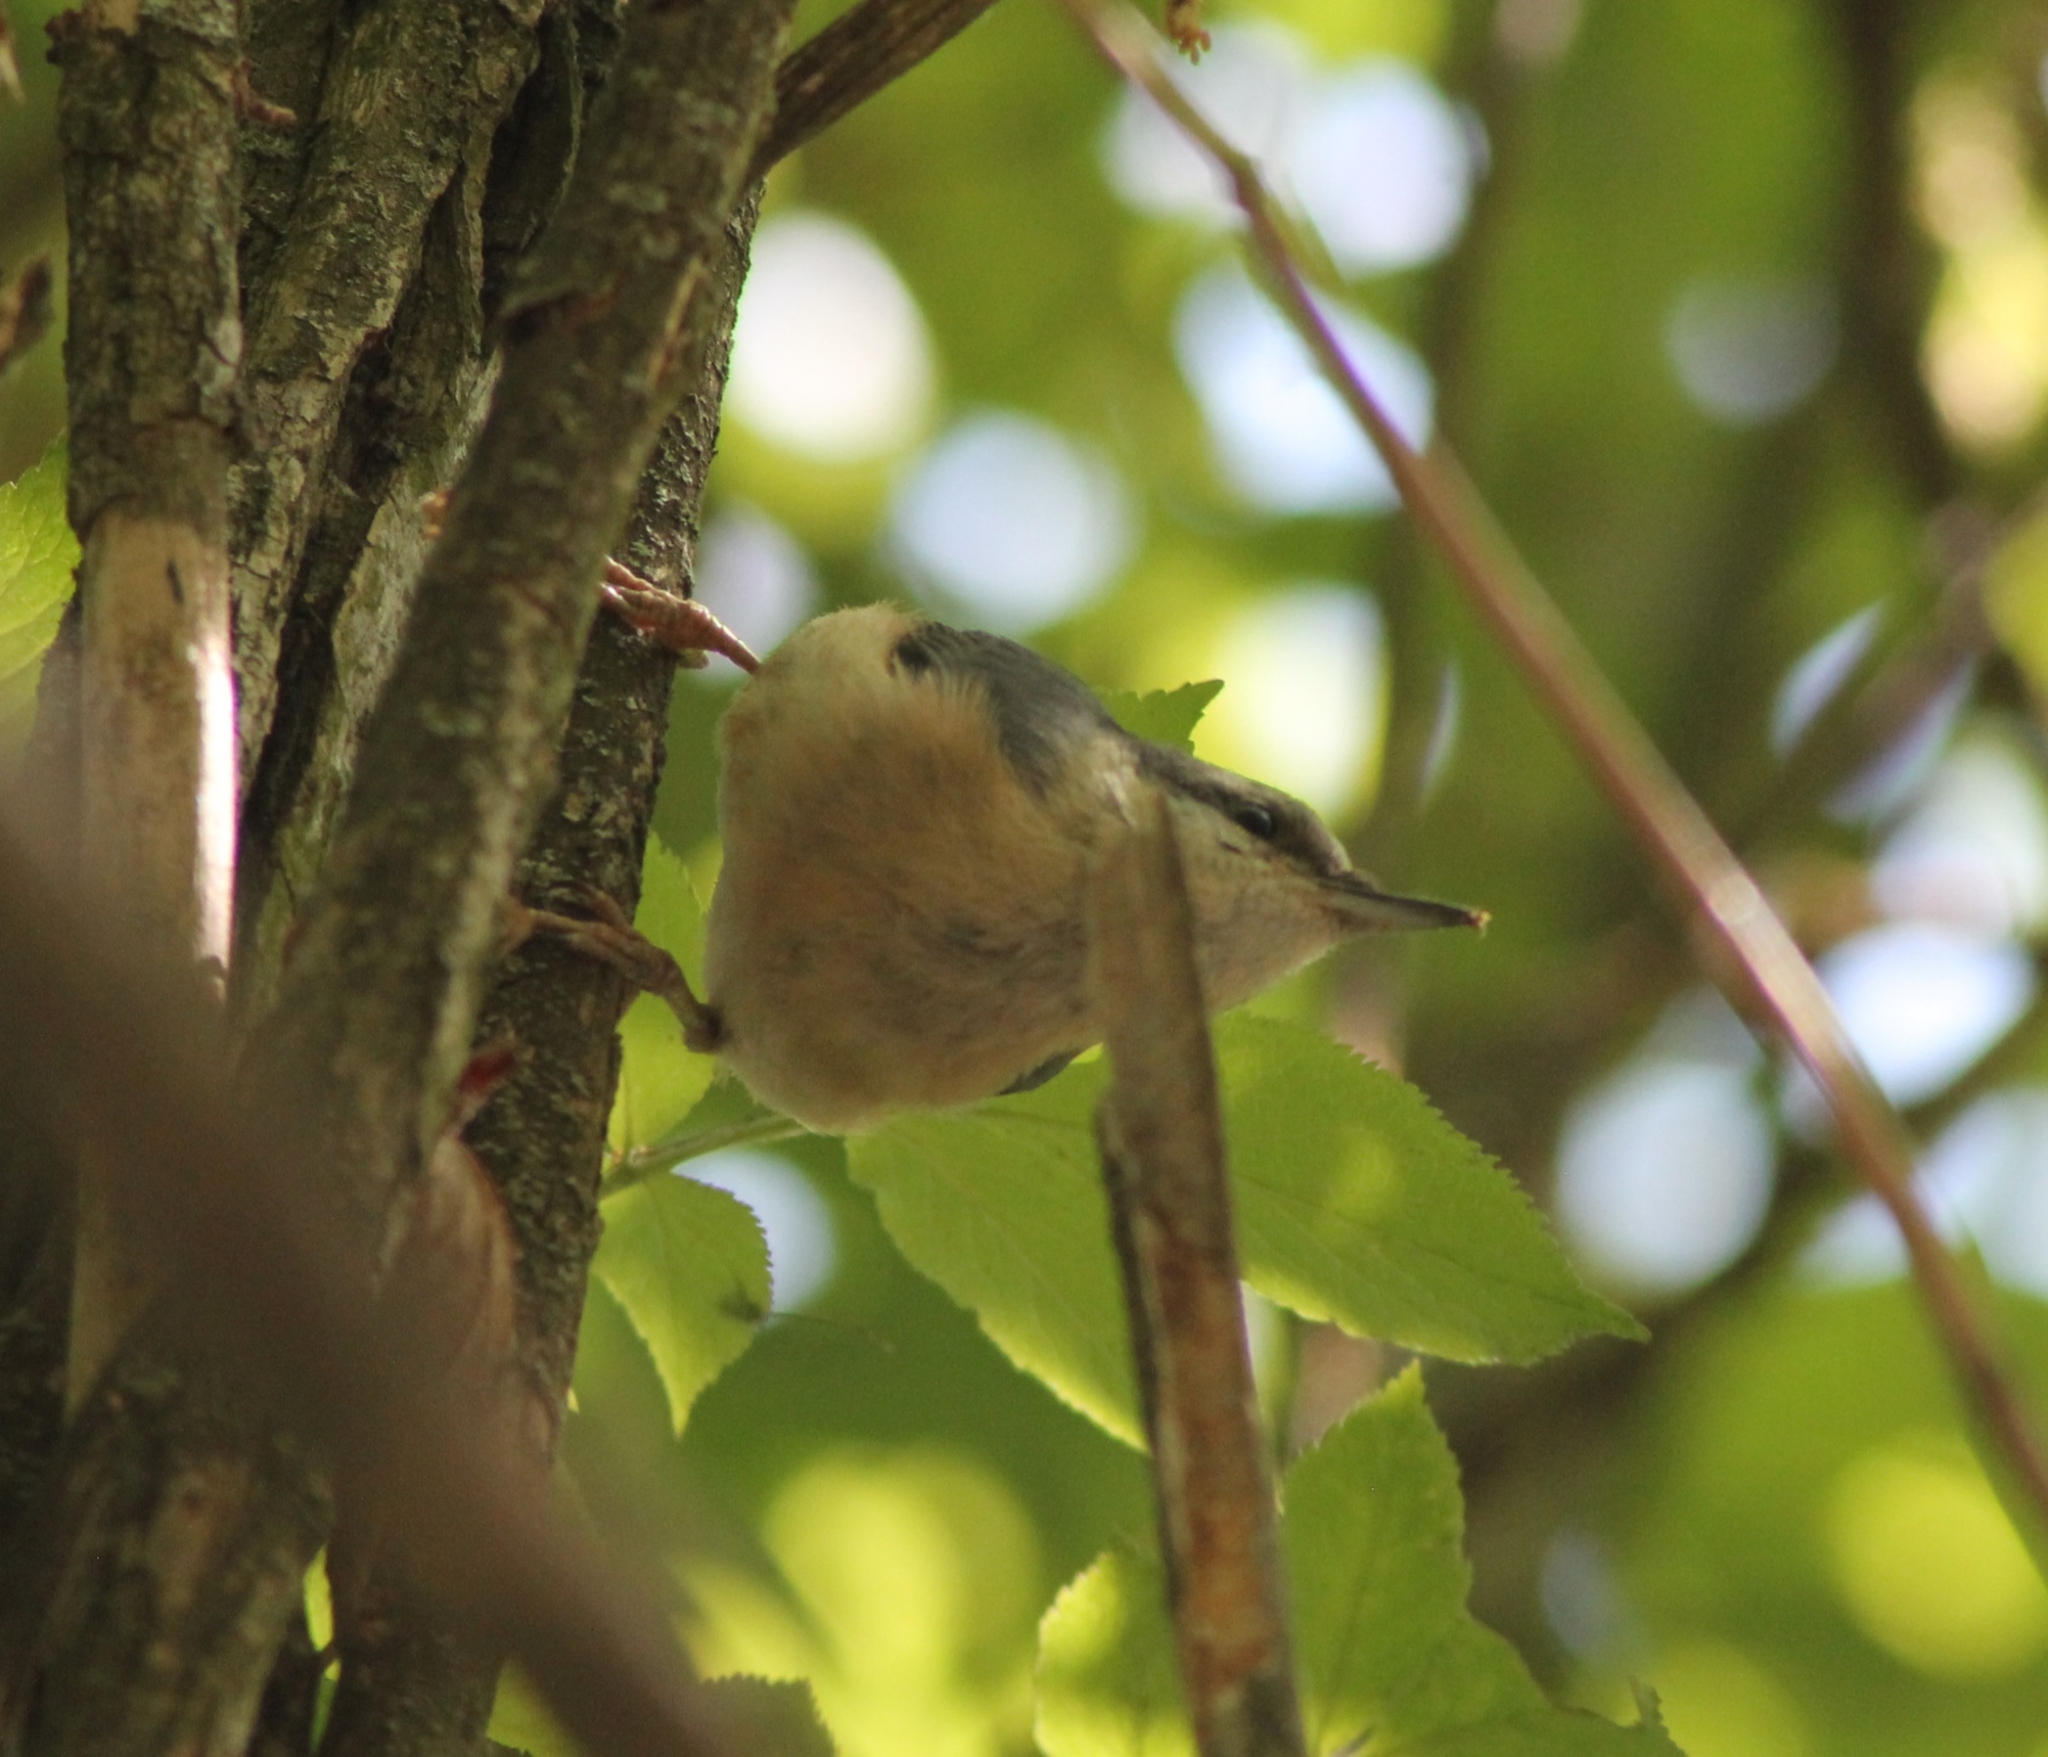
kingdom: Animalia
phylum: Chordata
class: Aves
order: Passeriformes
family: Sittidae
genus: Sitta
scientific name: Sitta europaea
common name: Eurasian nuthatch
